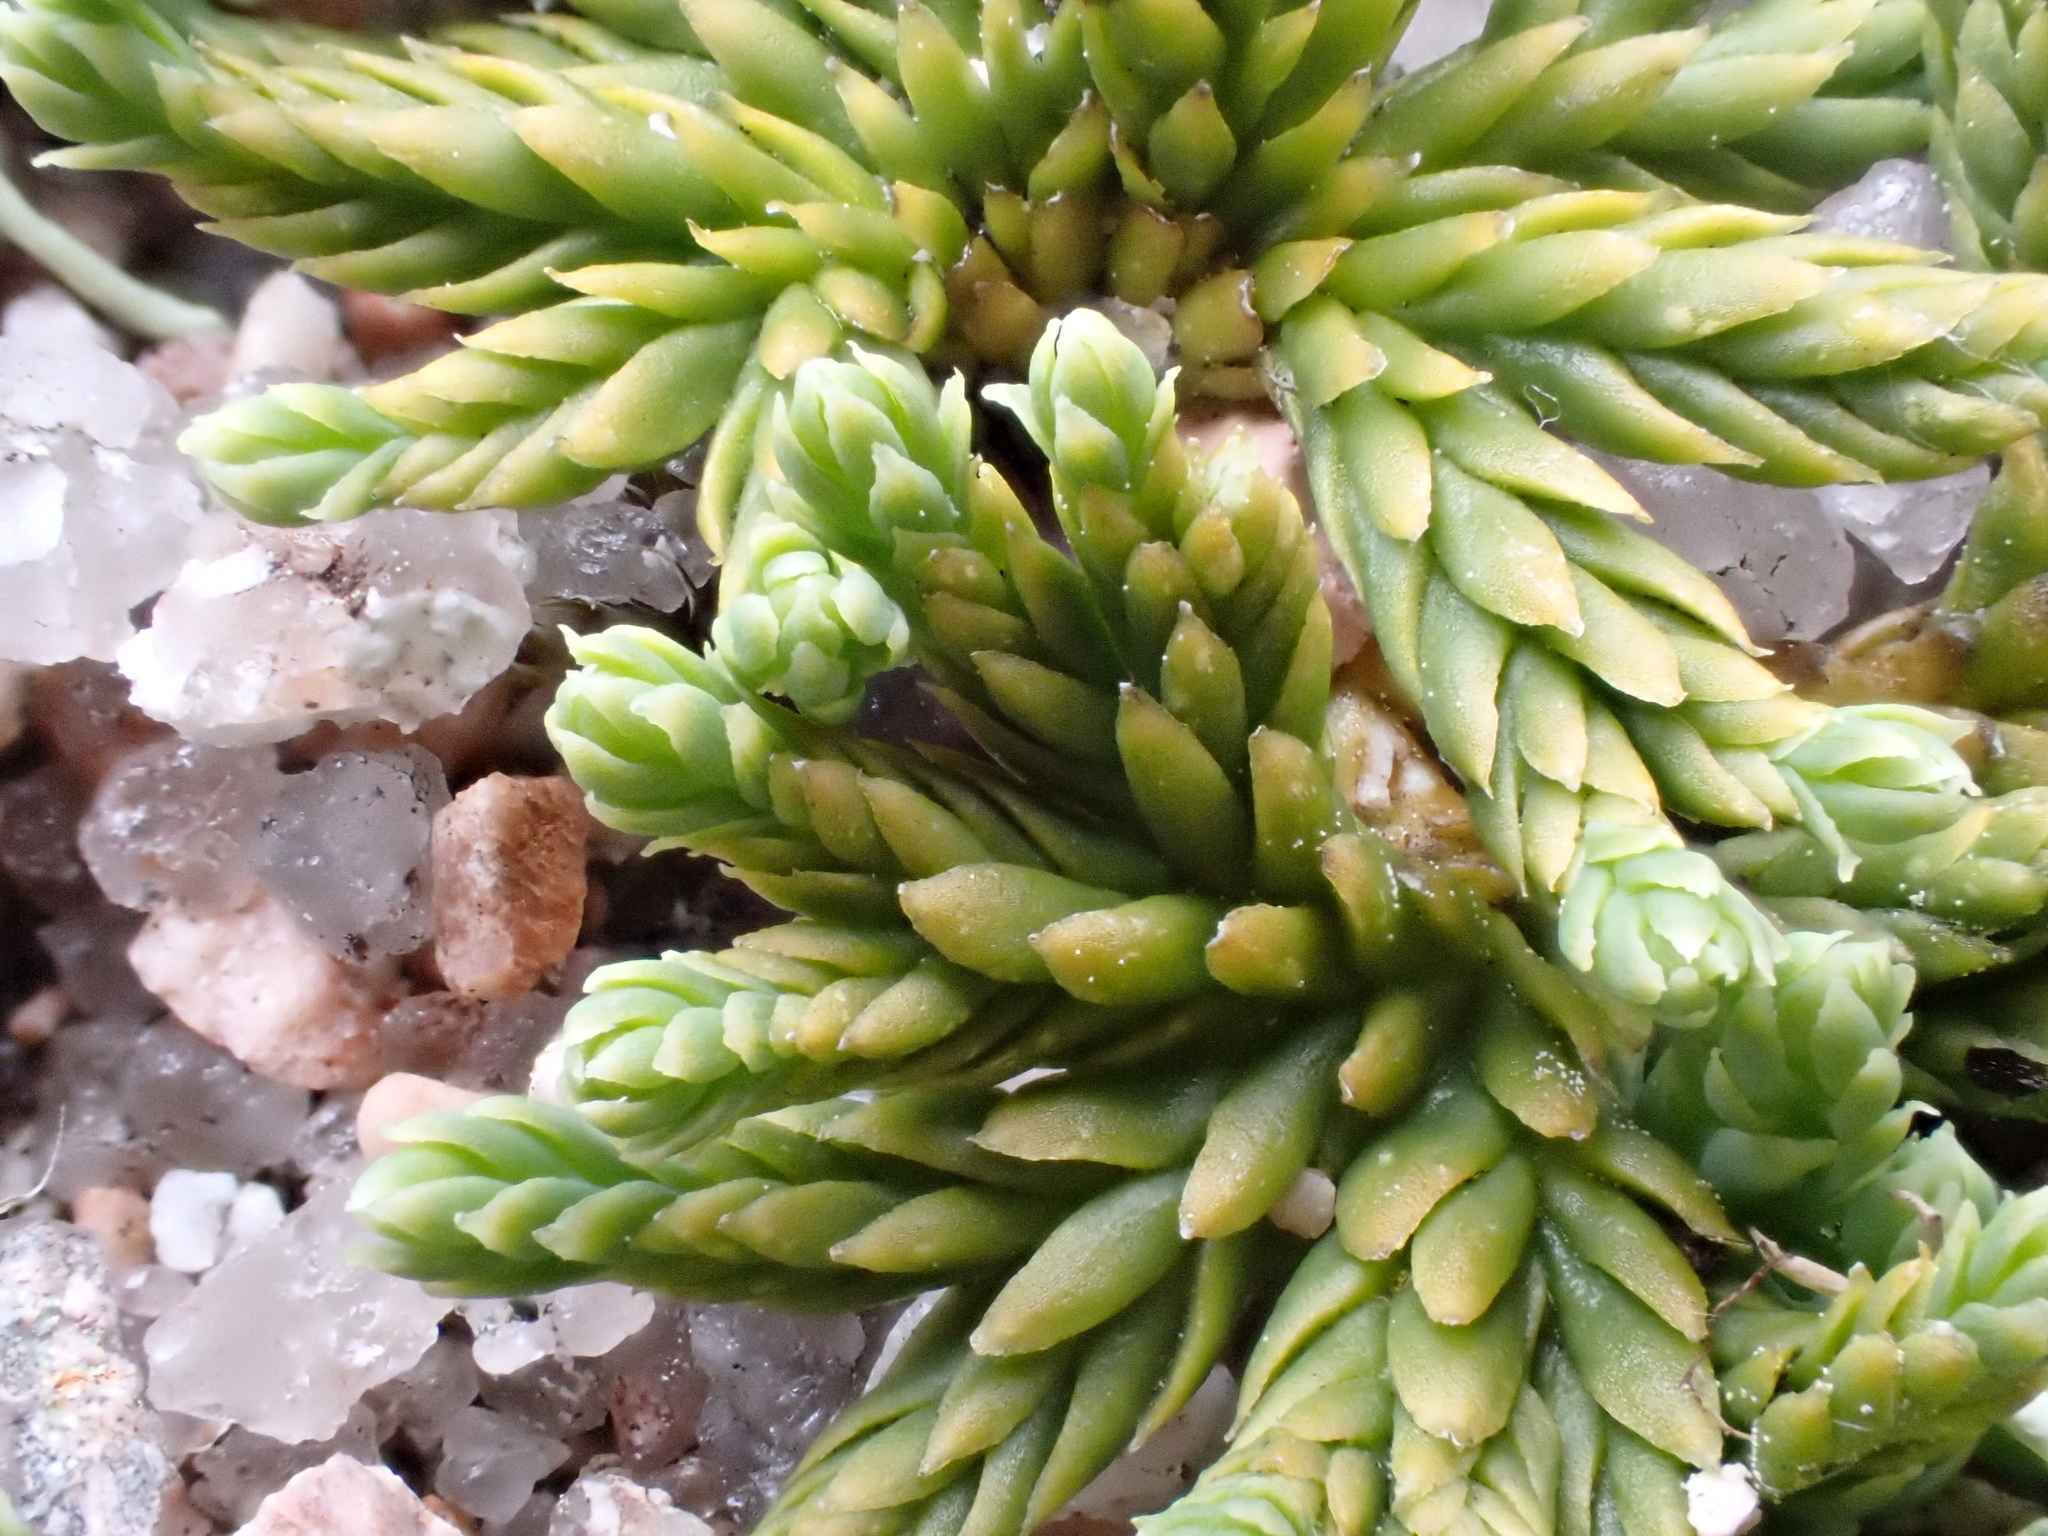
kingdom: Plantae
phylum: Tracheophyta
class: Lycopodiopsida
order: Lycopodiales
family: Lycopodiaceae
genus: Diphasiastrum
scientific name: Diphasiastrum alpinum
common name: Alpine clubmoss
